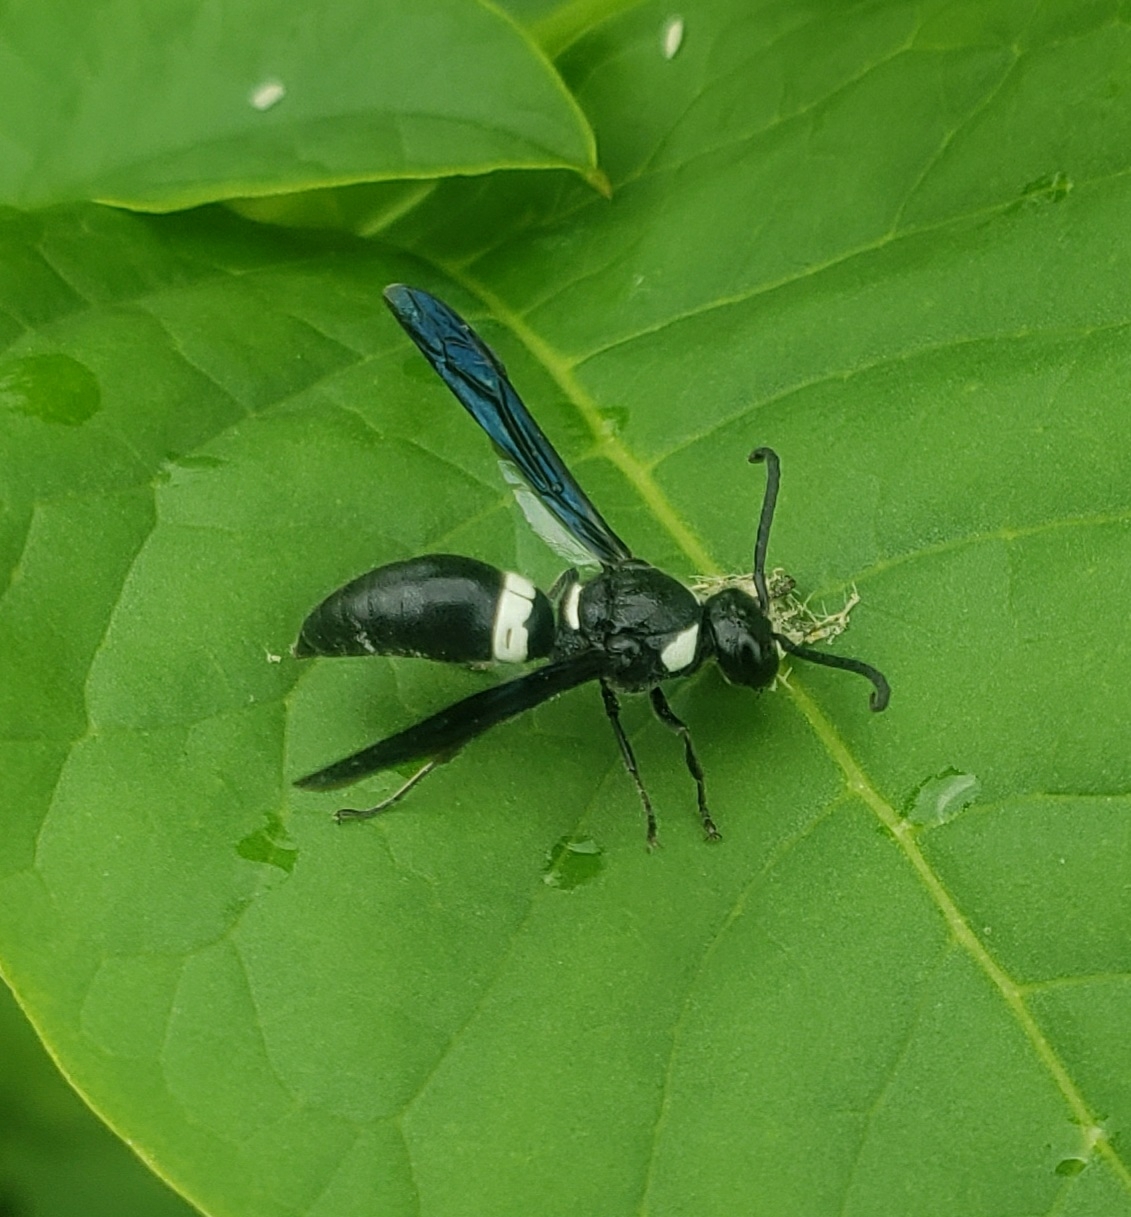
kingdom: Animalia
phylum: Arthropoda
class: Insecta
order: Hymenoptera
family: Eumenidae
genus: Monobia
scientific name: Monobia quadridens
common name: Four-toothed mason wasp
